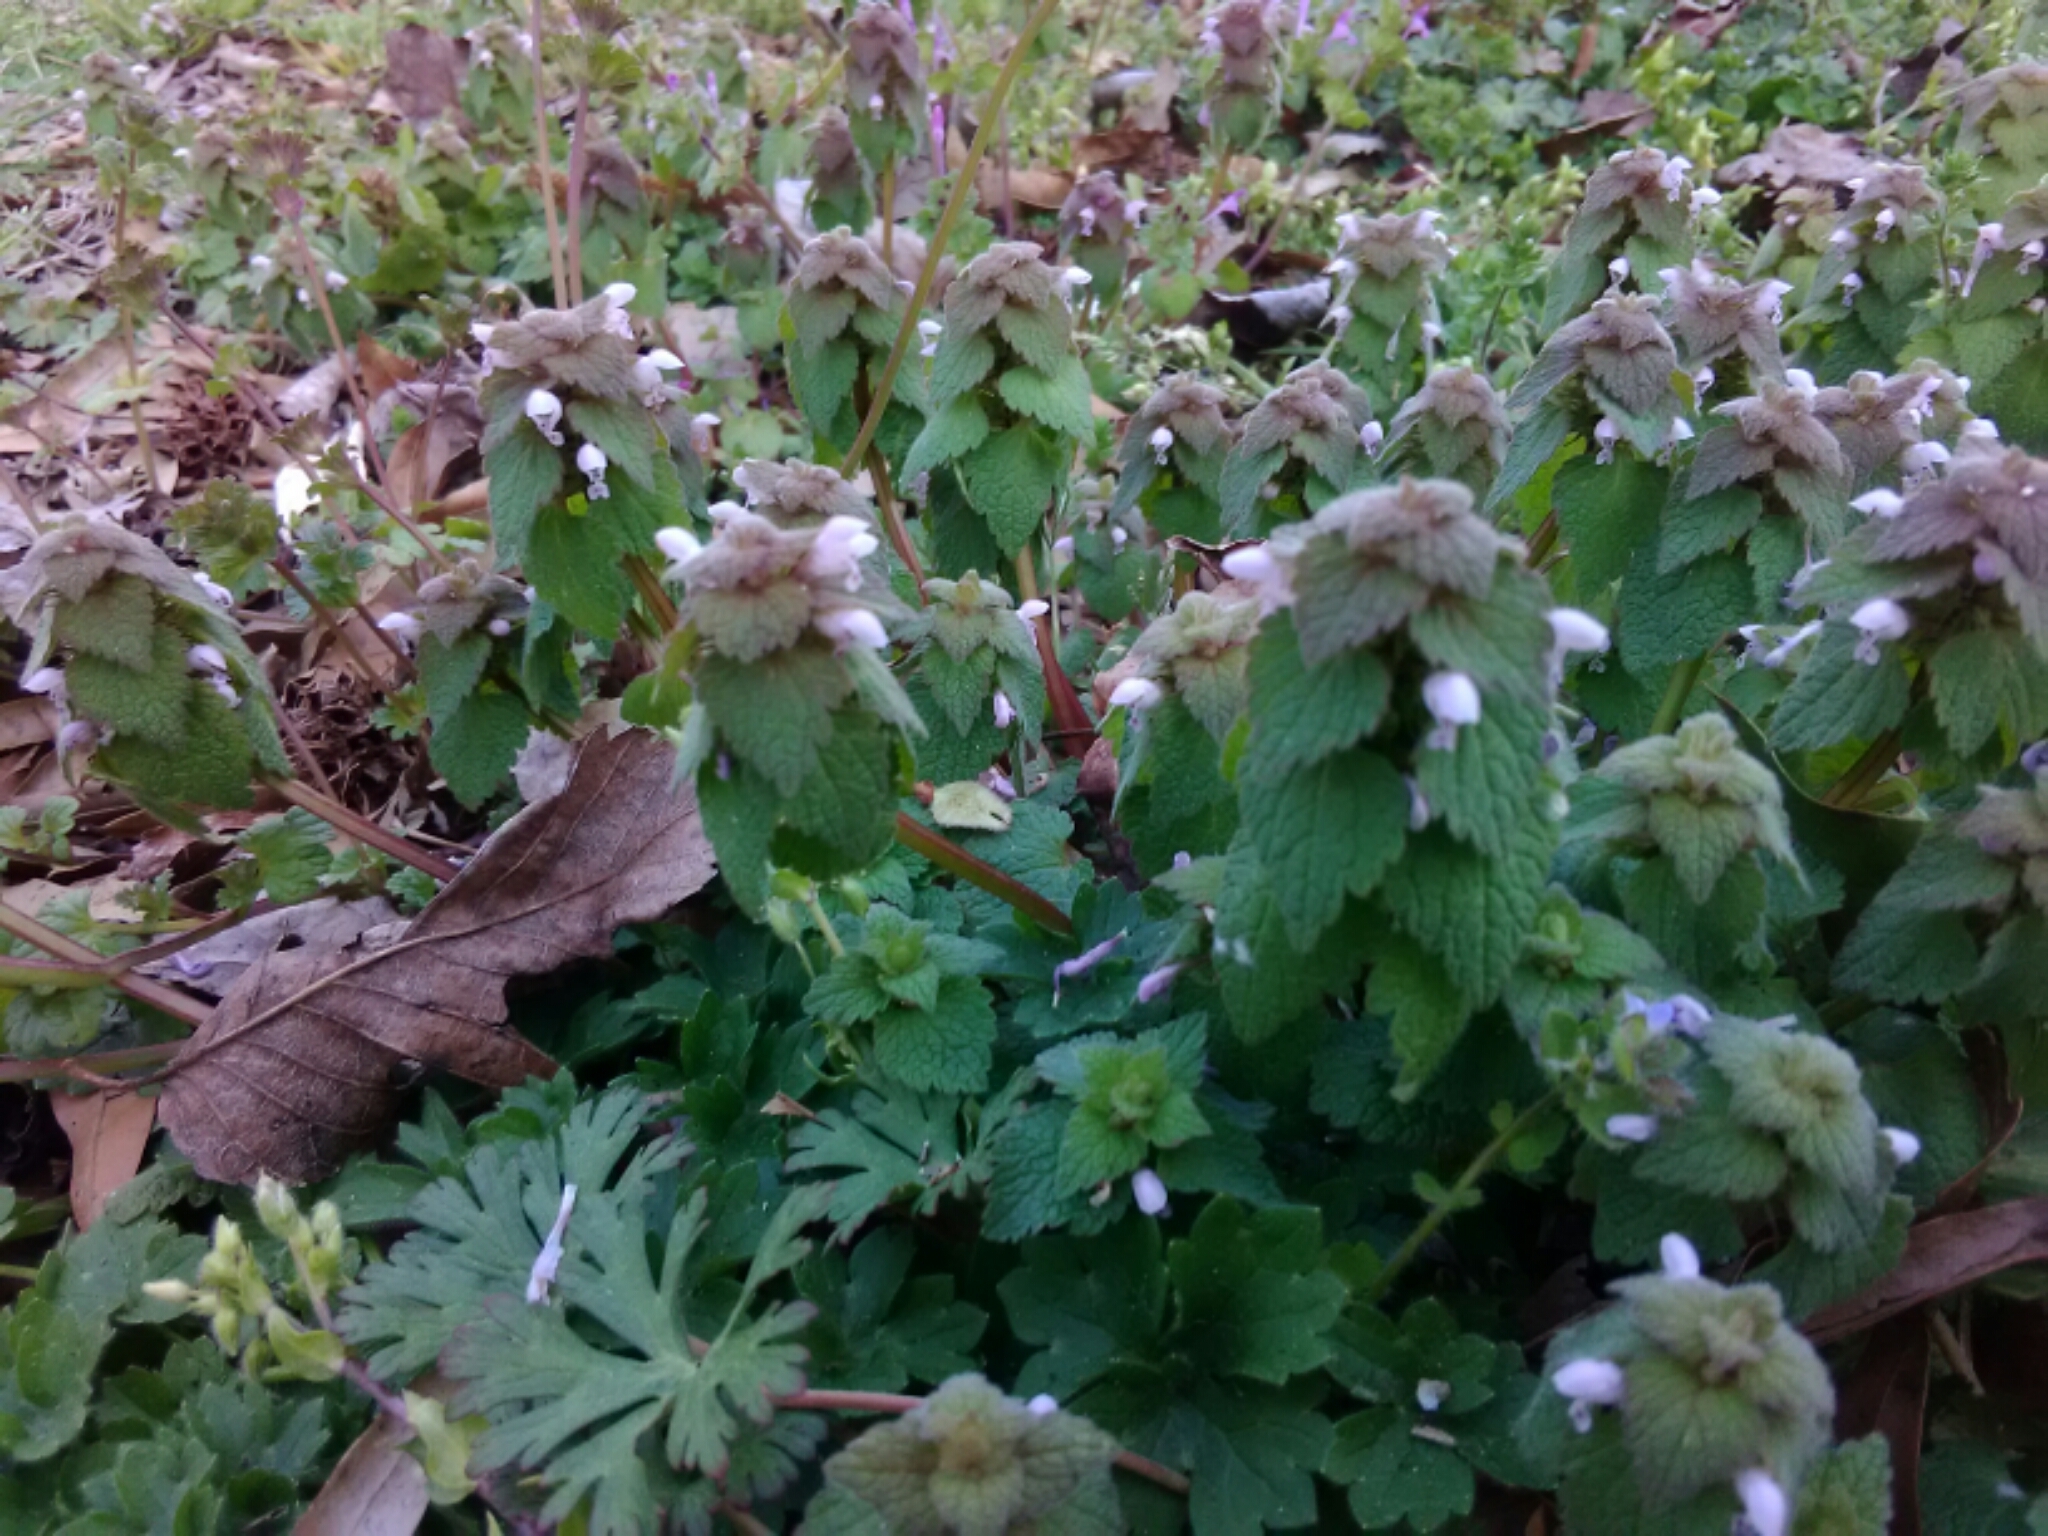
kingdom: Plantae
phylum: Tracheophyta
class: Magnoliopsida
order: Lamiales
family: Lamiaceae
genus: Lamium
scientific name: Lamium purpureum
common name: Red dead-nettle
